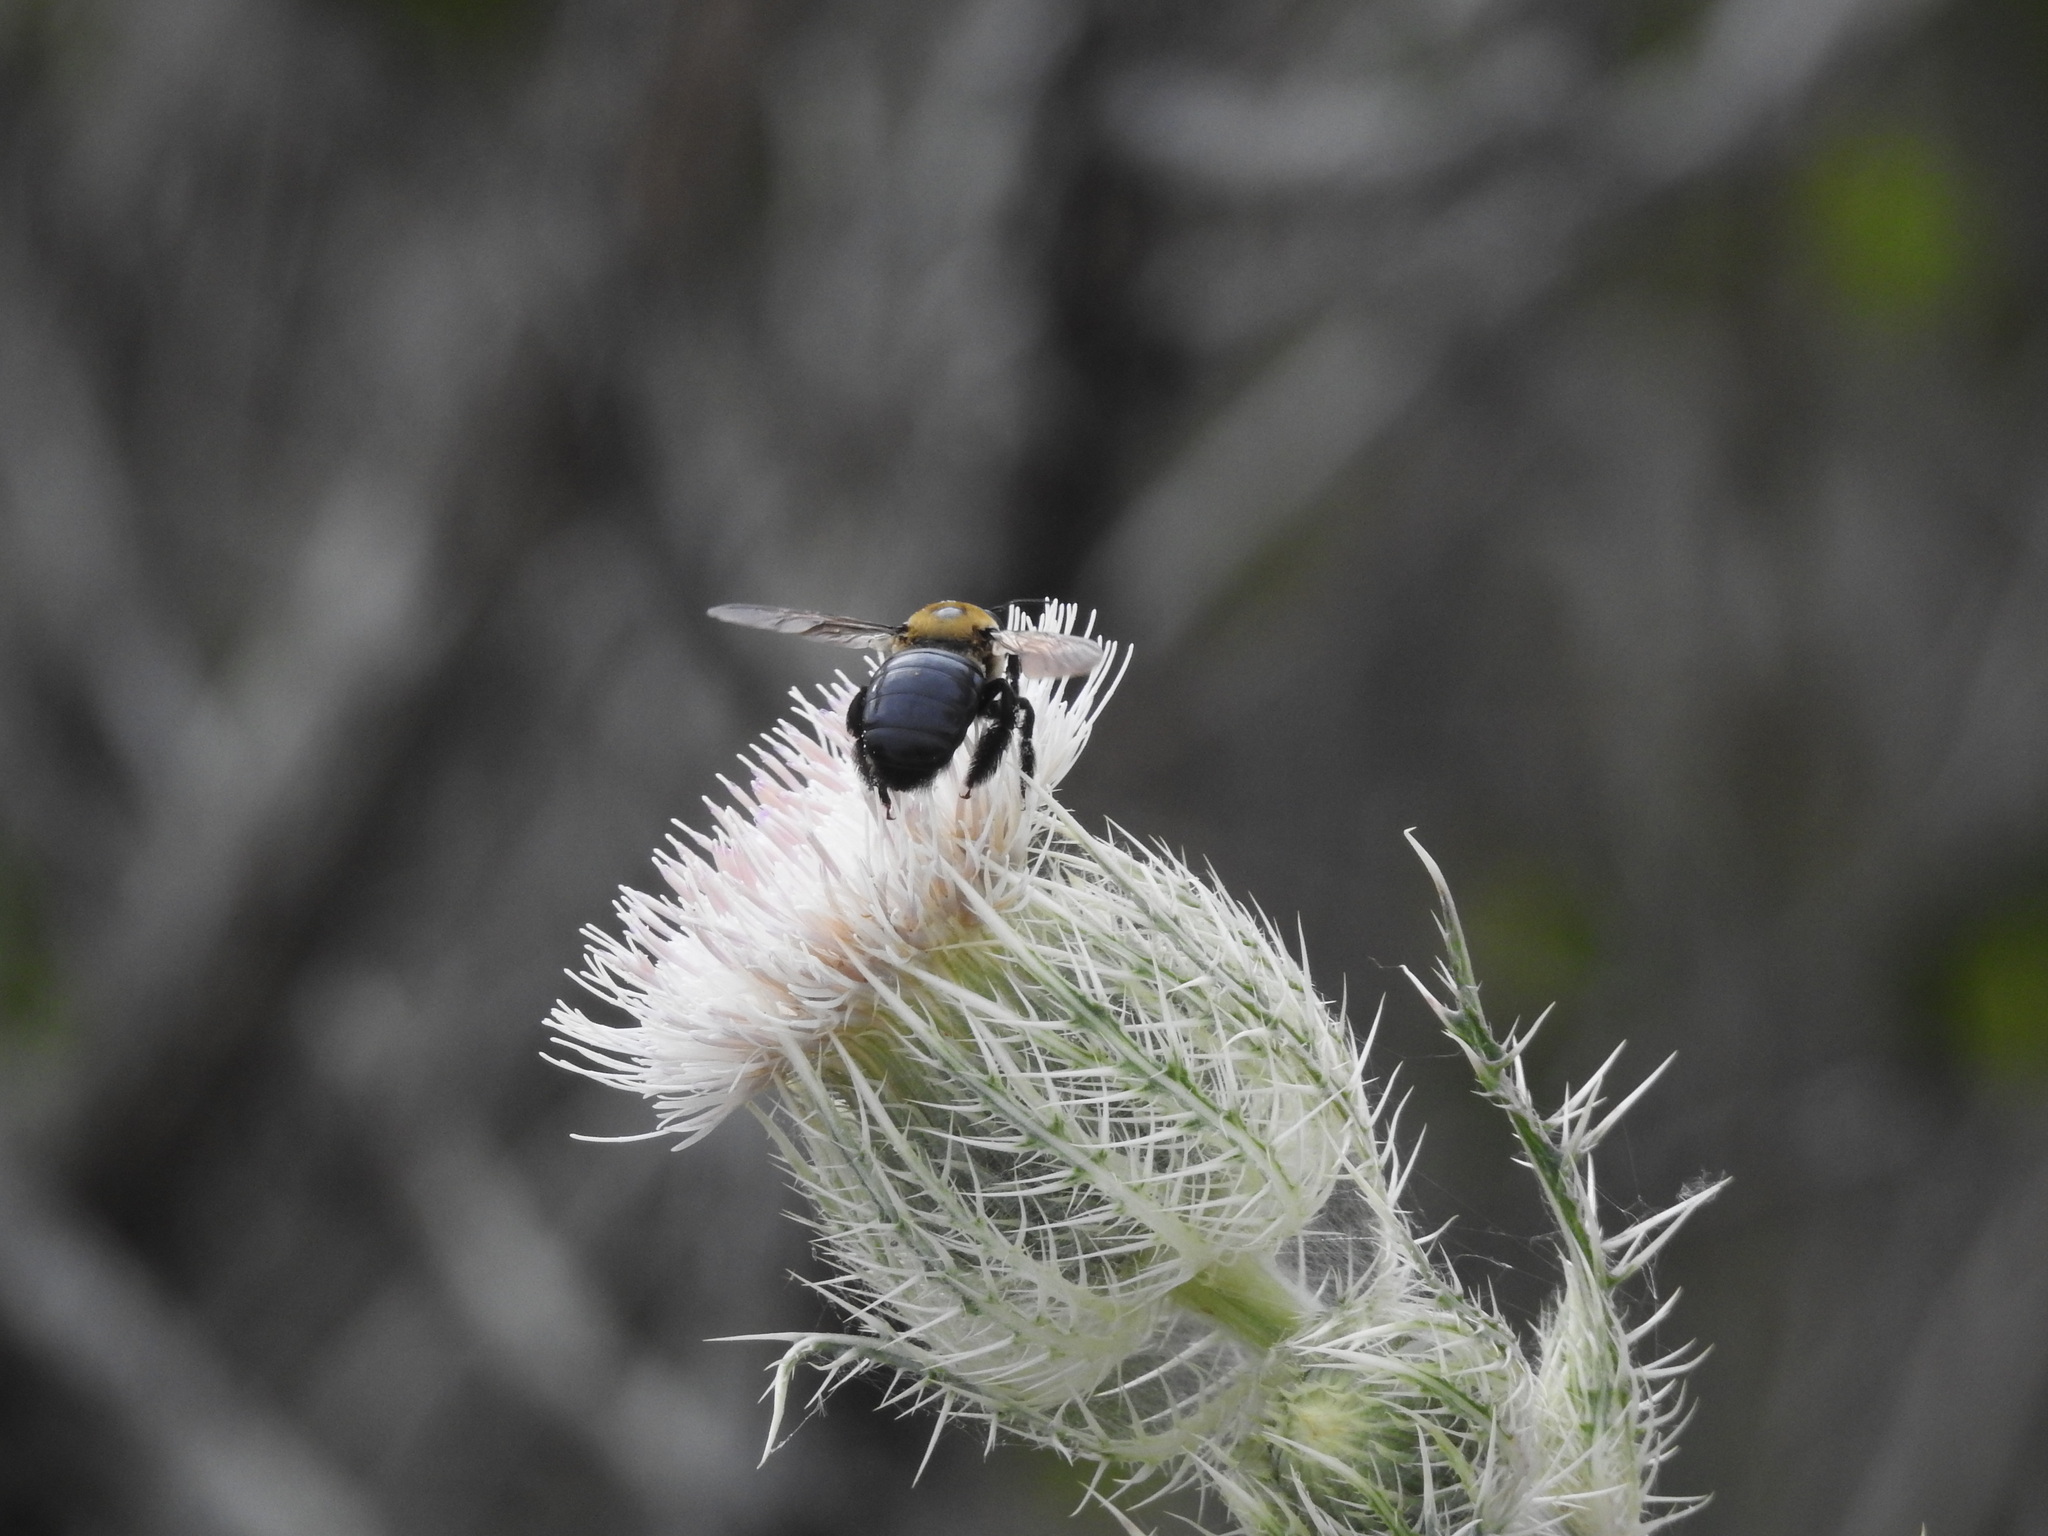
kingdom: Animalia
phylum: Arthropoda
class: Insecta
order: Hymenoptera
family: Apidae
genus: Xylocopa
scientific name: Xylocopa virginica
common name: Carpenter bee
